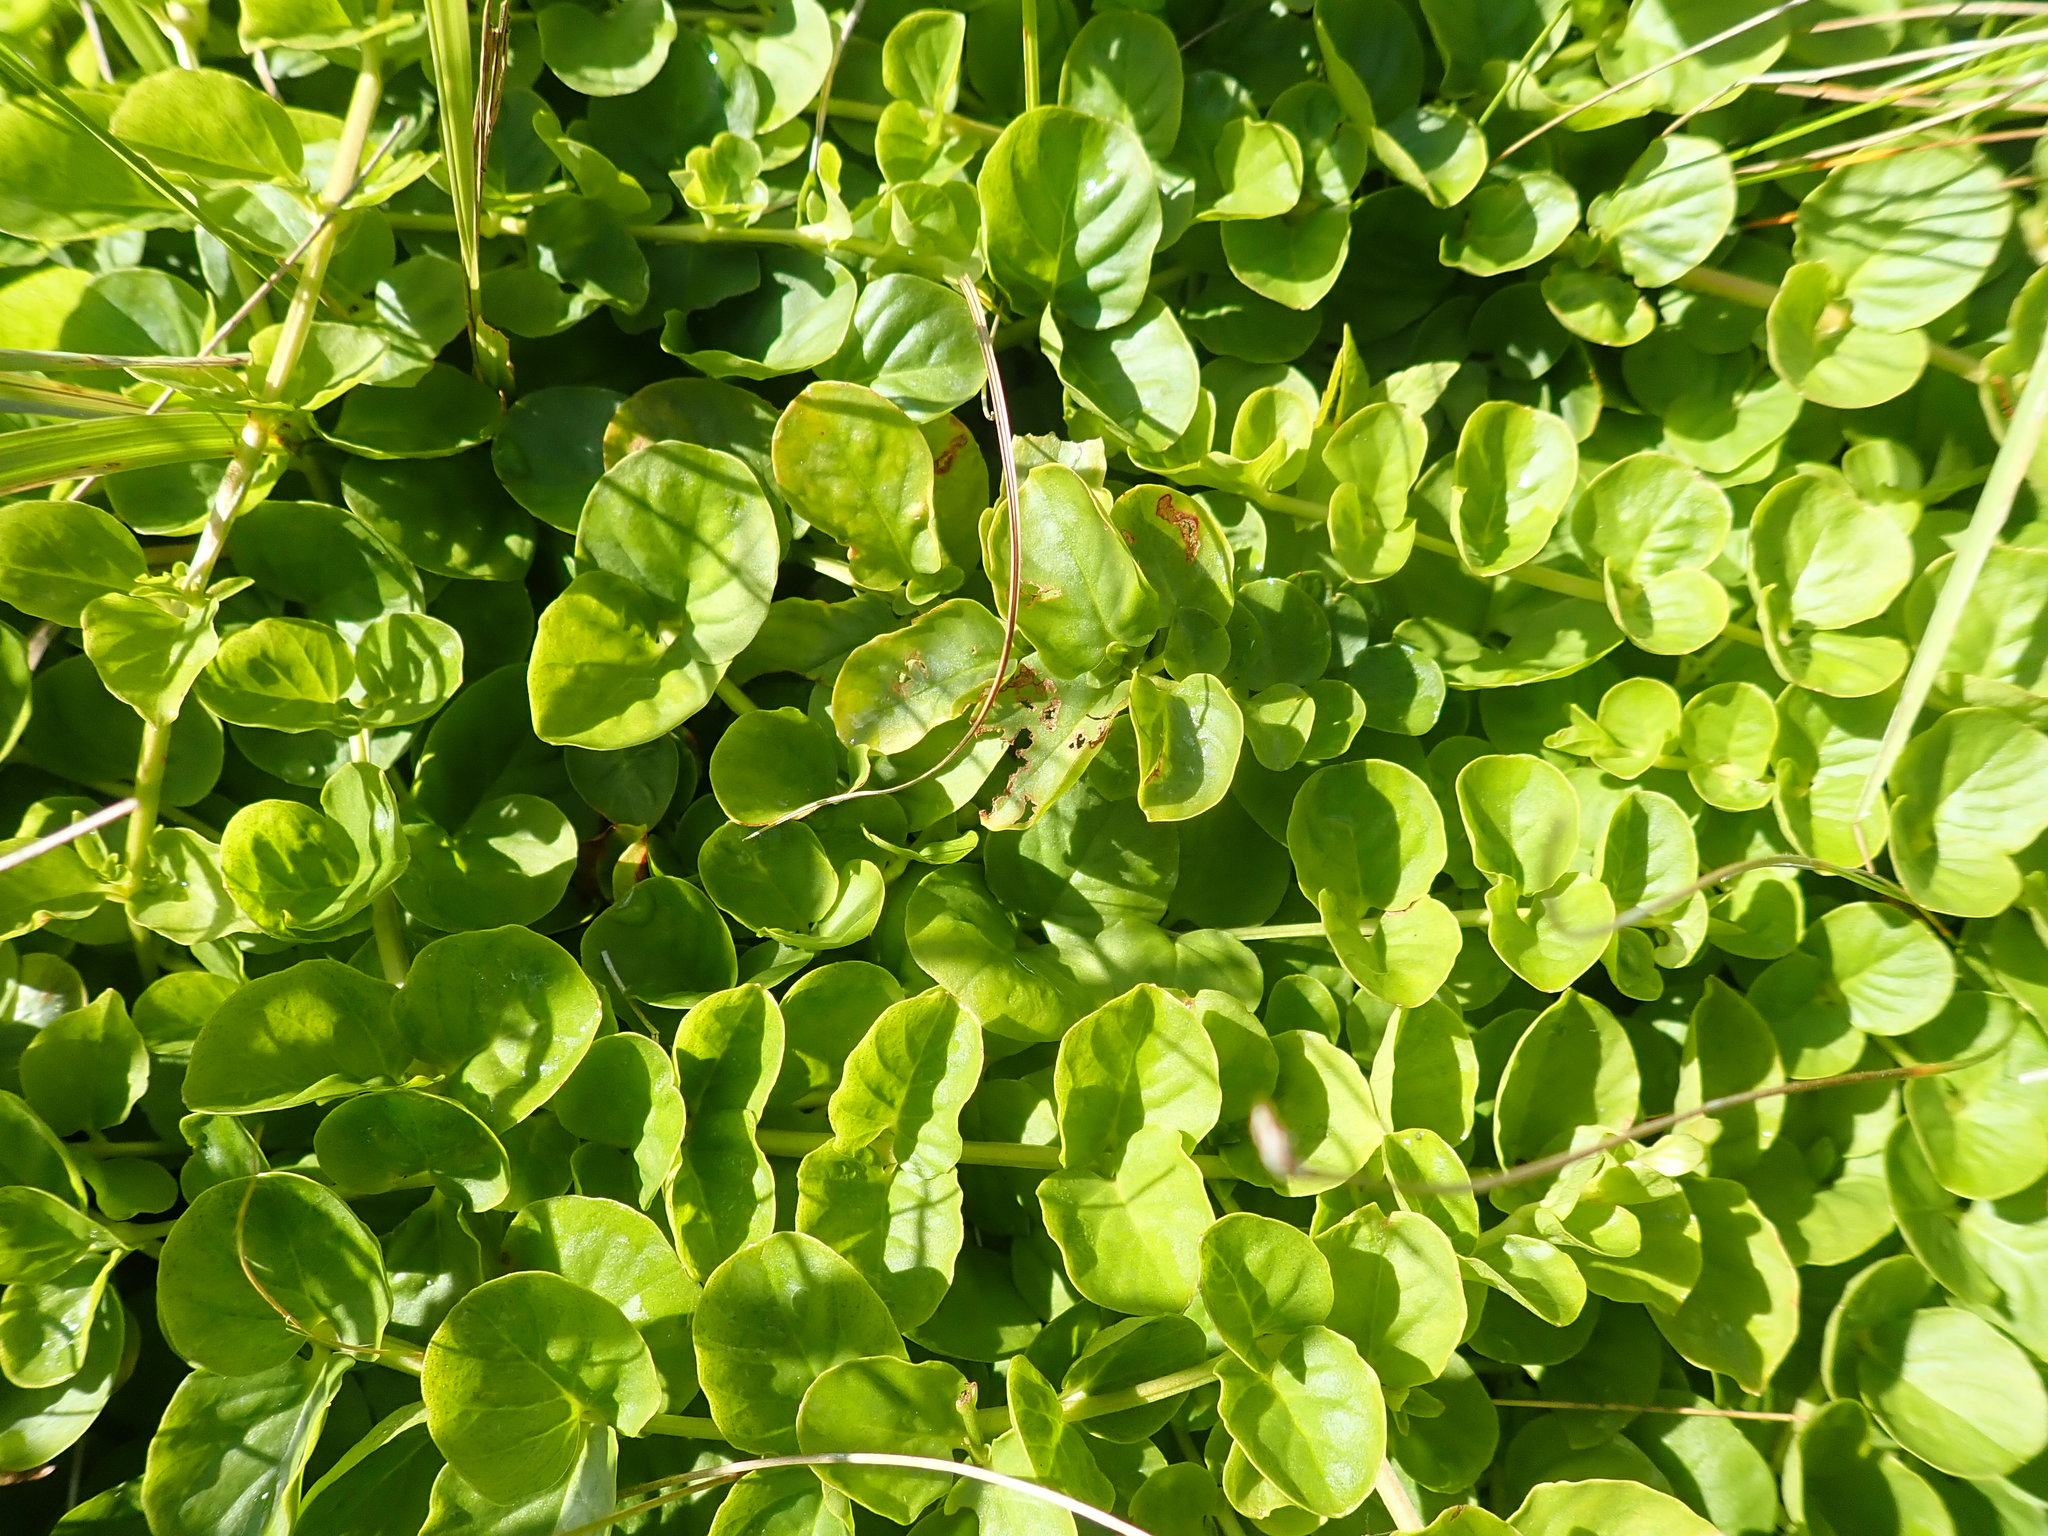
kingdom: Plantae
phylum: Tracheophyta
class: Magnoliopsida
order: Ericales
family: Primulaceae
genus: Lysimachia
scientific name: Lysimachia nummularia
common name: Moneywort
